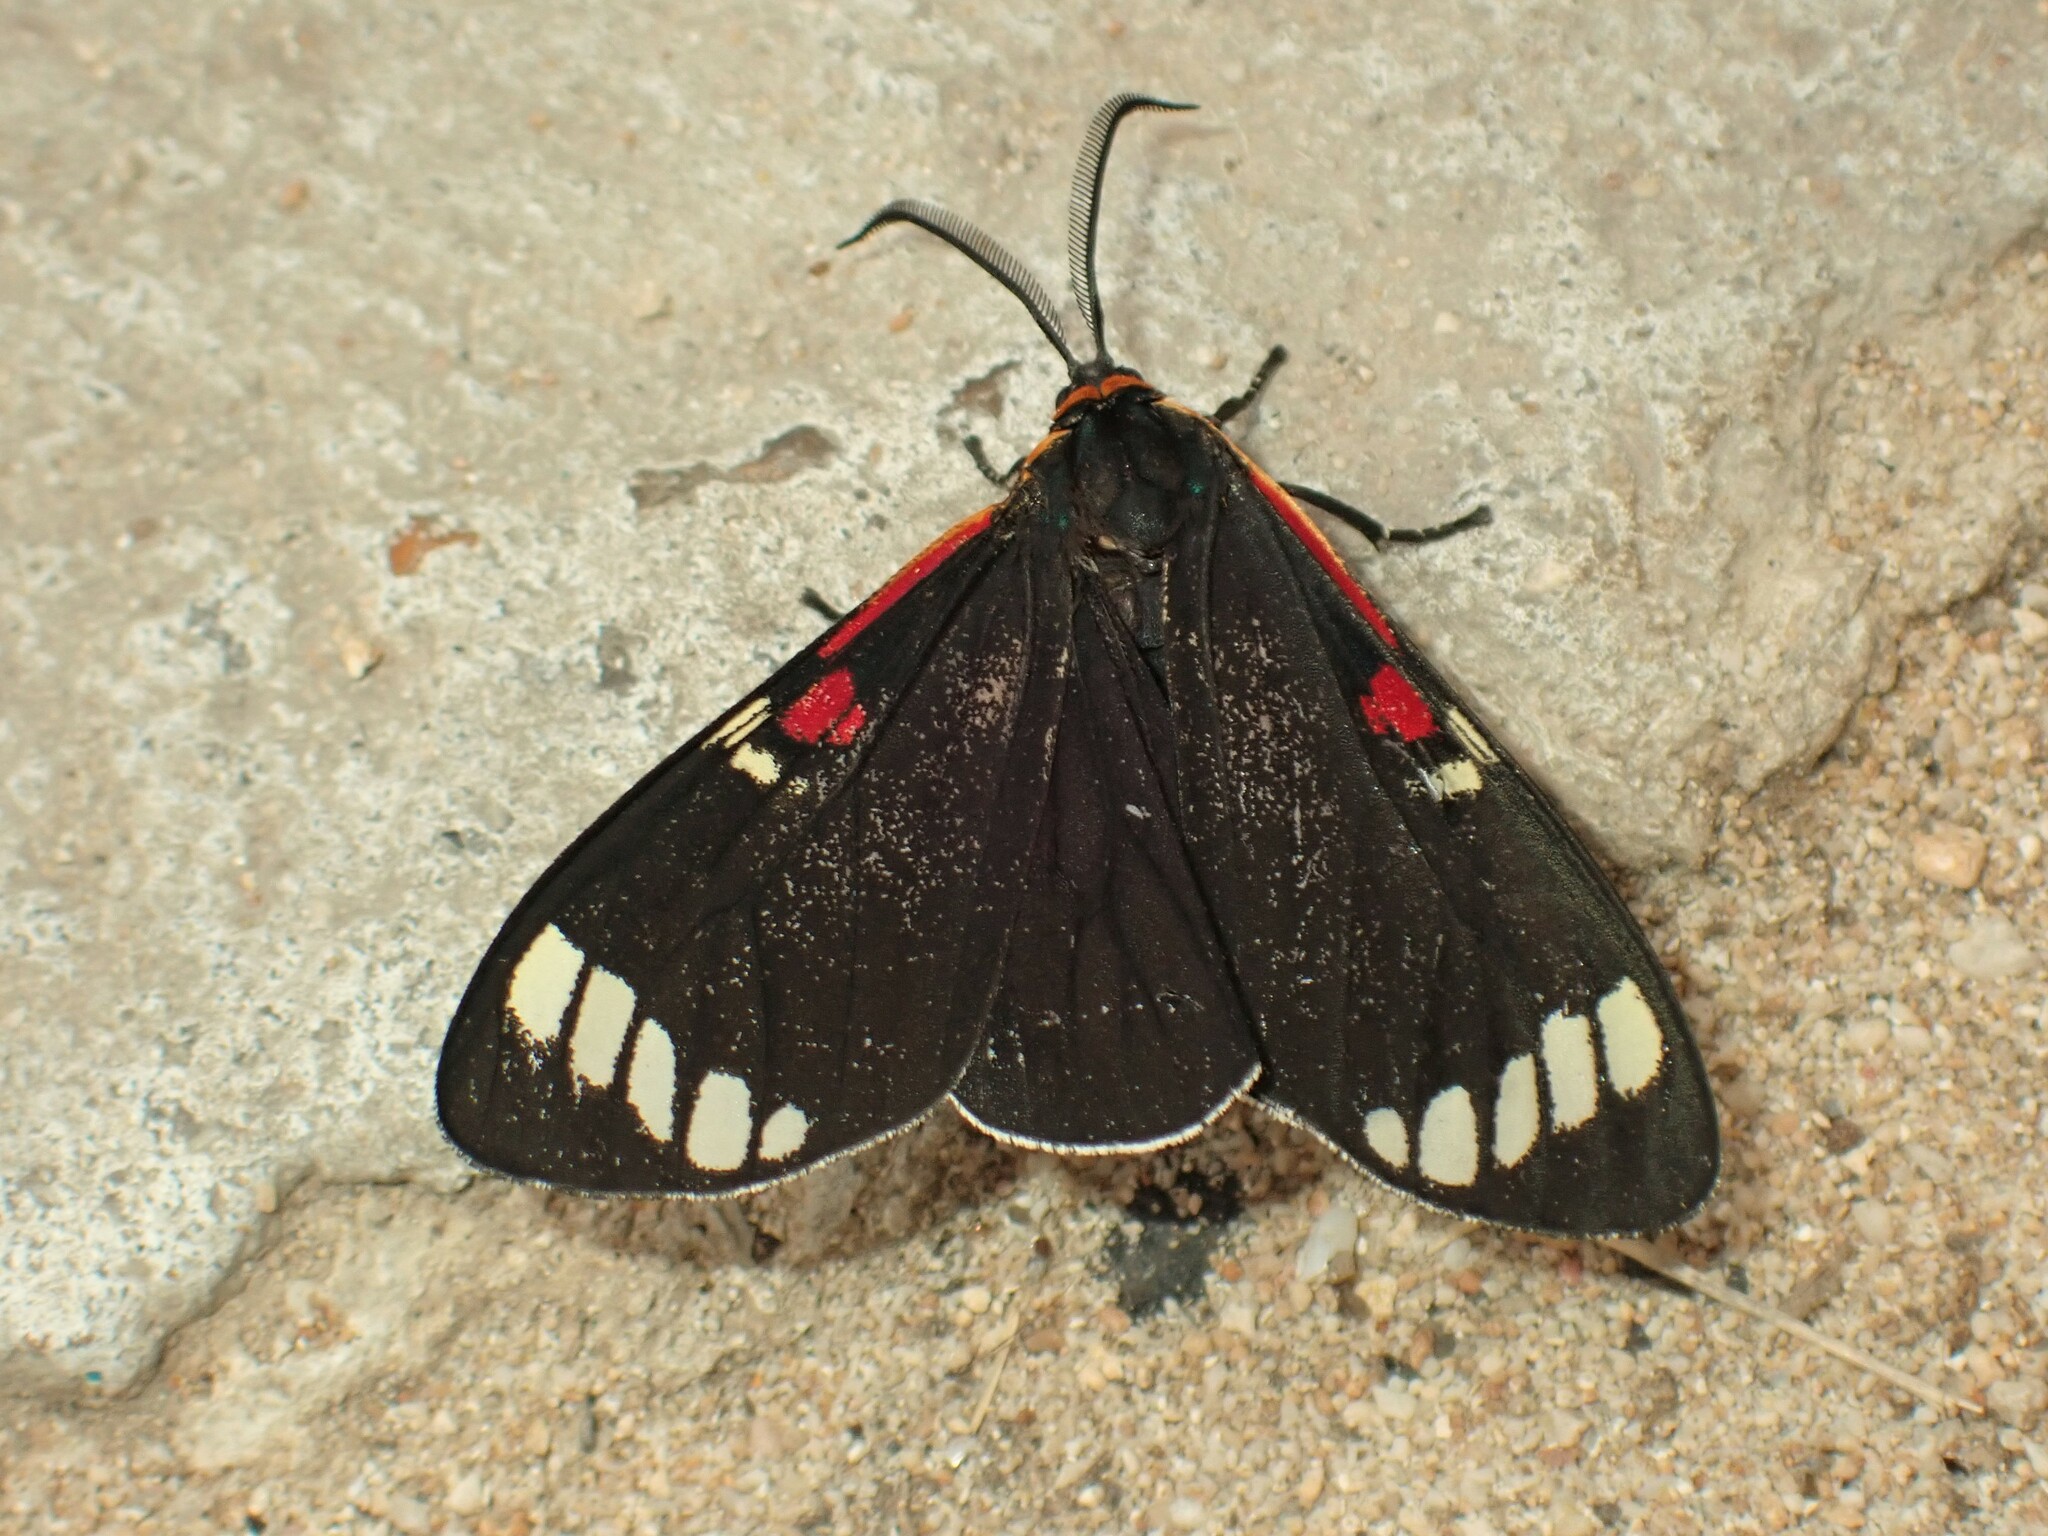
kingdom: Animalia
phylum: Arthropoda
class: Insecta
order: Lepidoptera
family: Erebidae
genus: Phaloesia
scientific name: Phaloesia saucia
